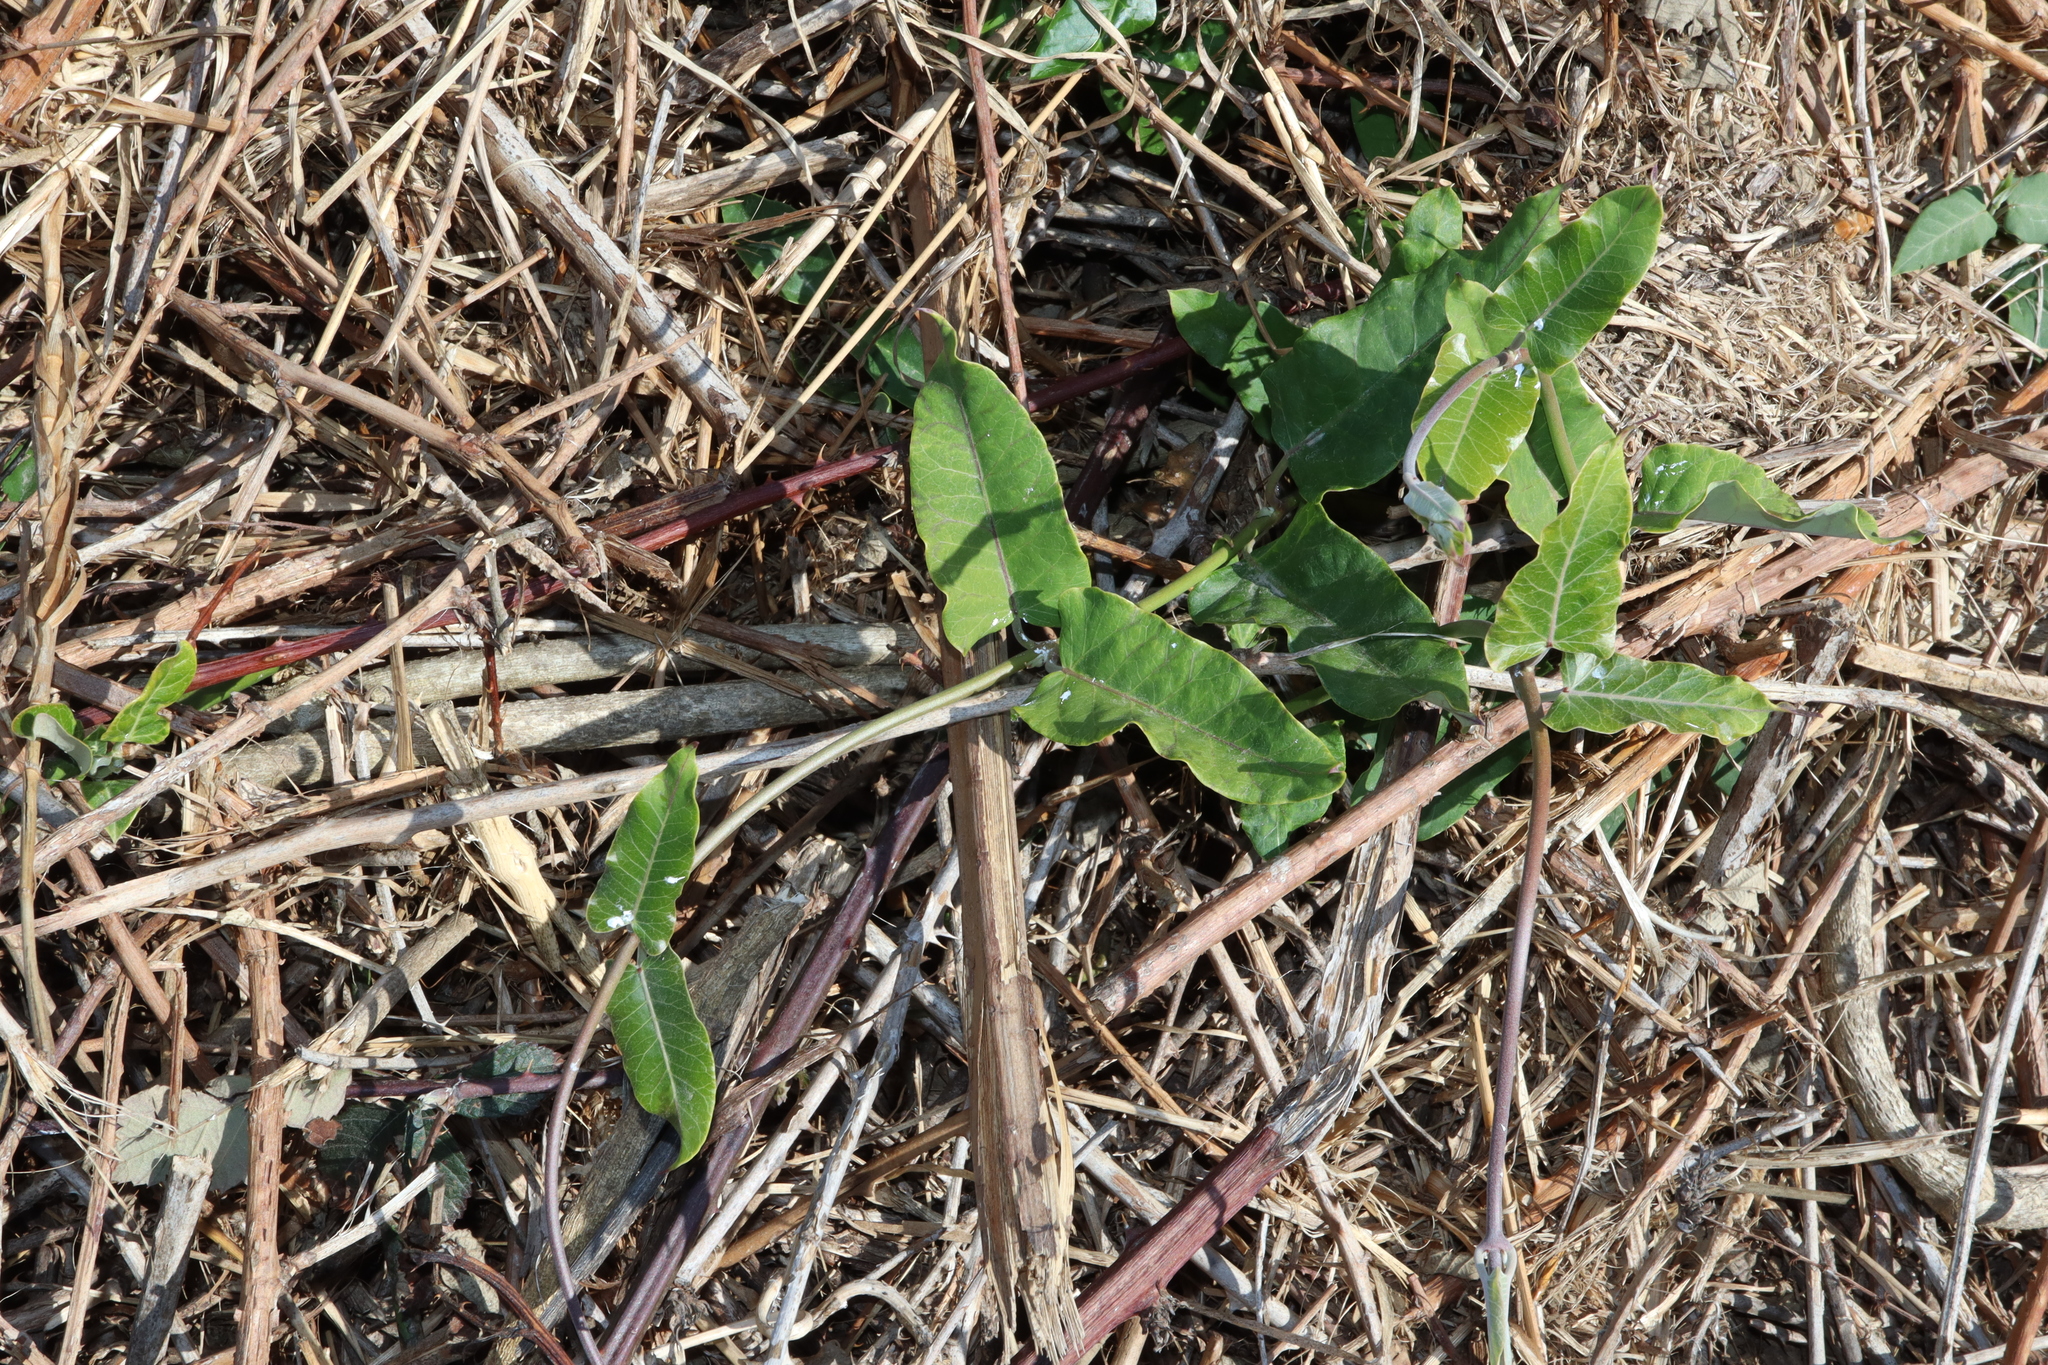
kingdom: Plantae
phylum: Tracheophyta
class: Magnoliopsida
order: Gentianales
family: Apocynaceae
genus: Araujia
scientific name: Araujia sericifera
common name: White bladderflower
